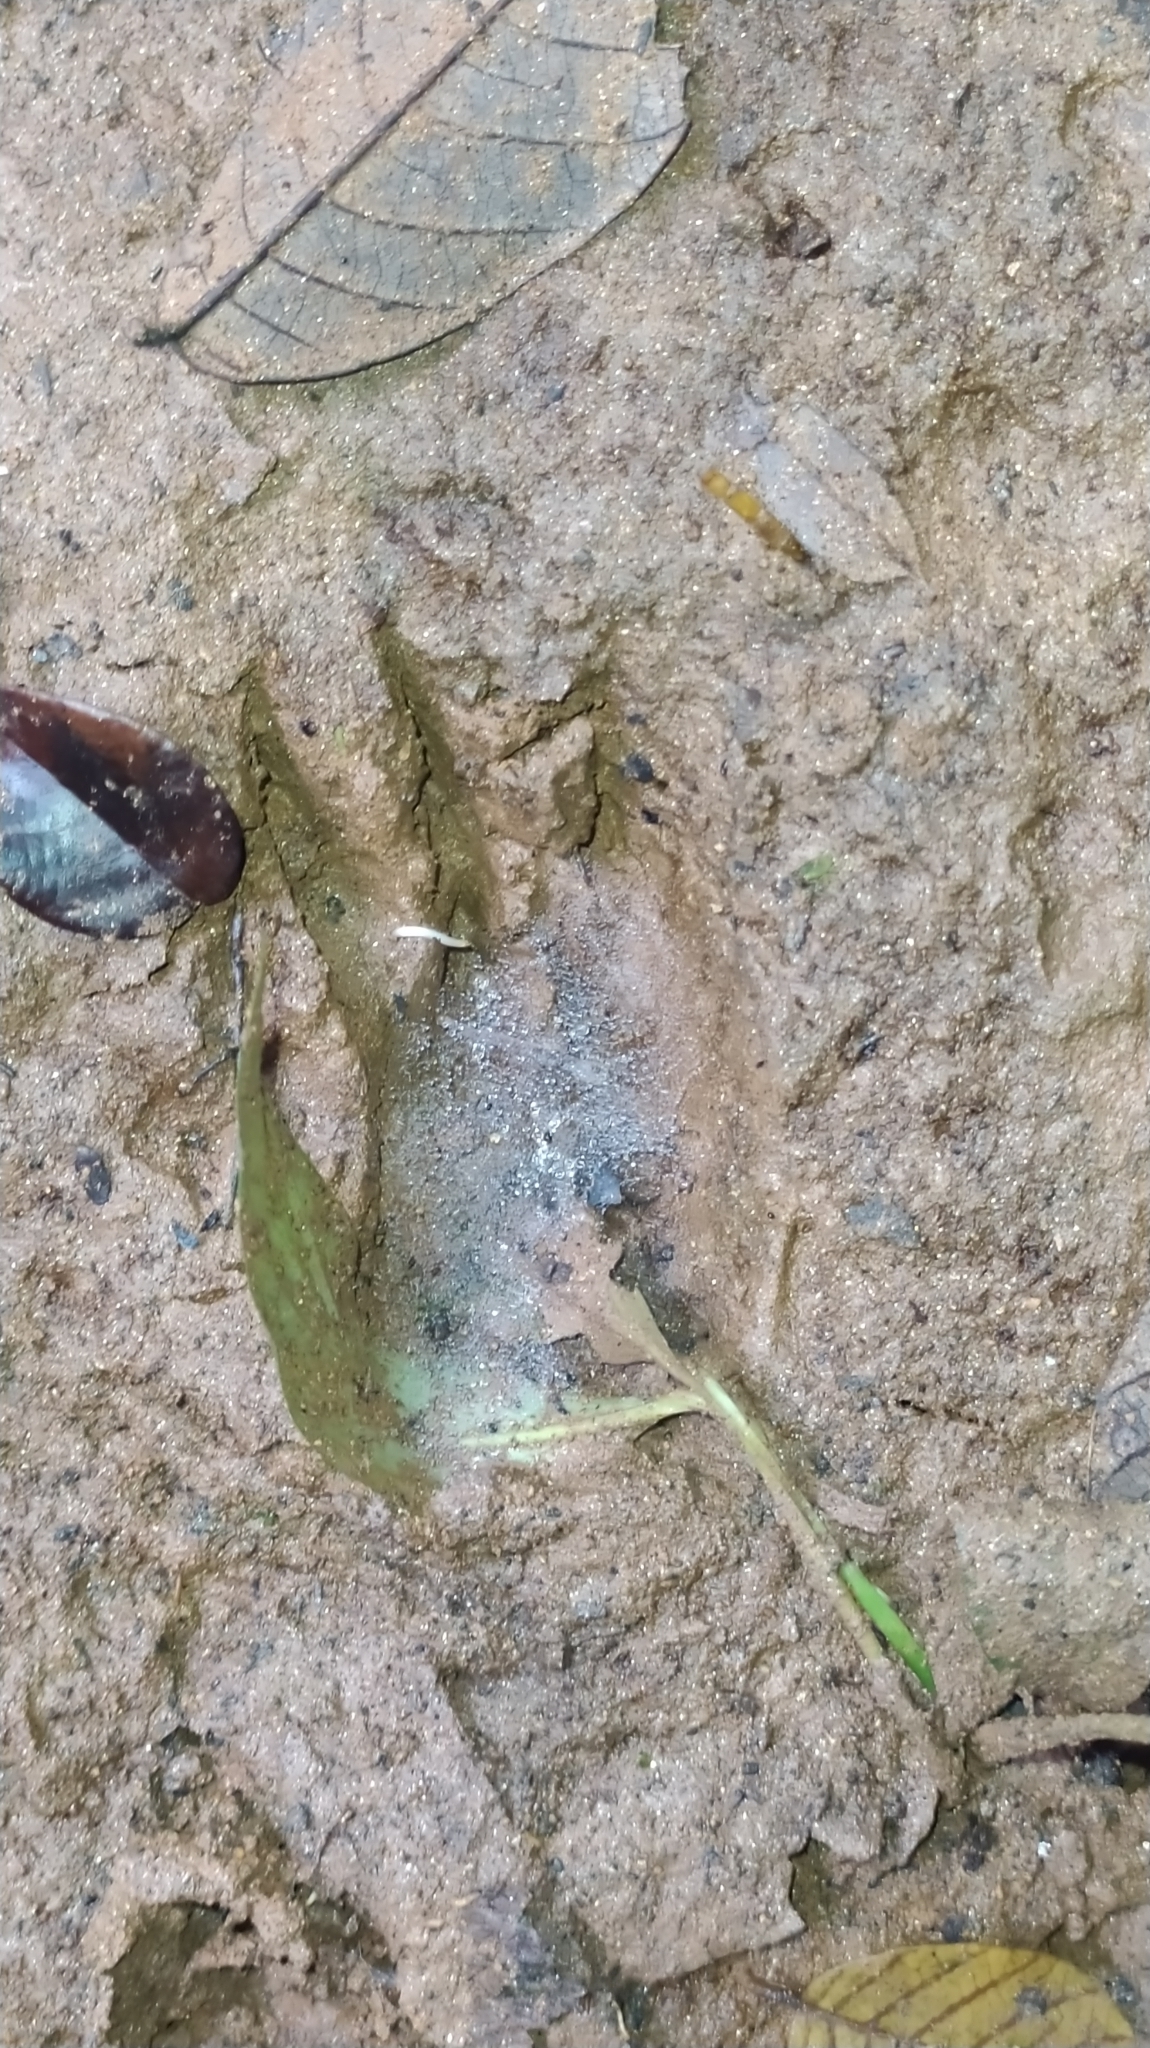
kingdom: Animalia
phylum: Chordata
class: Mammalia
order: Rodentia
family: Cuniculidae
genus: Cuniculus
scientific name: Cuniculus paca
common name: Lowland paca
